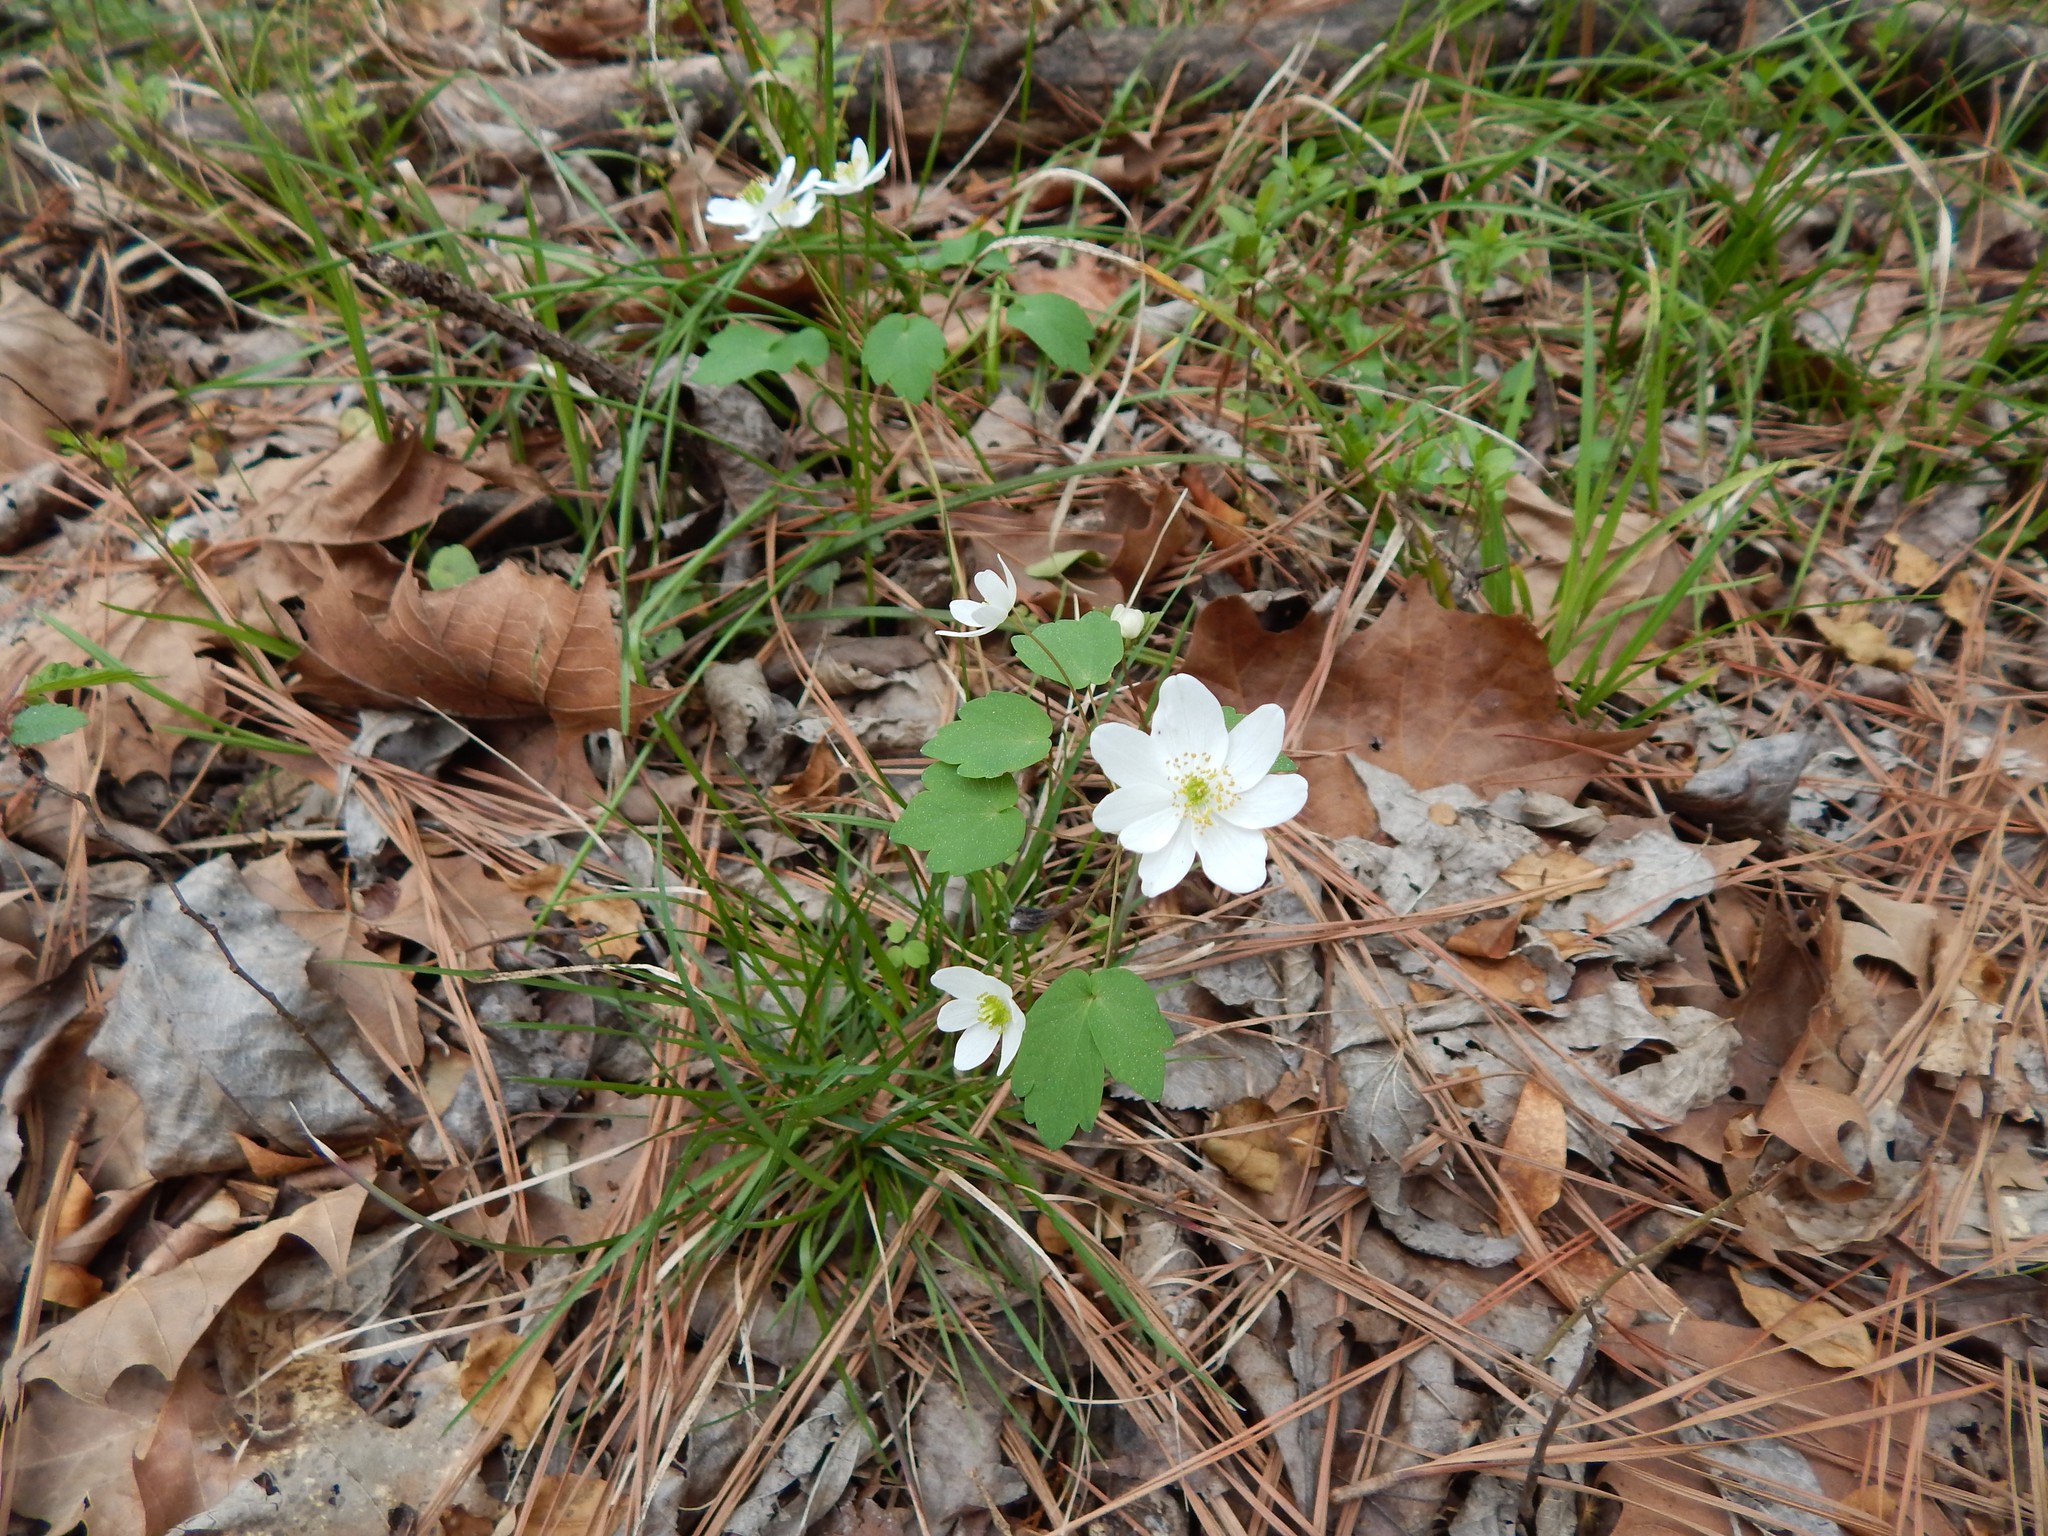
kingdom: Plantae
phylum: Tracheophyta
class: Magnoliopsida
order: Ranunculales
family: Ranunculaceae
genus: Thalictrum
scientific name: Thalictrum thalictroides
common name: Rue-anemone
